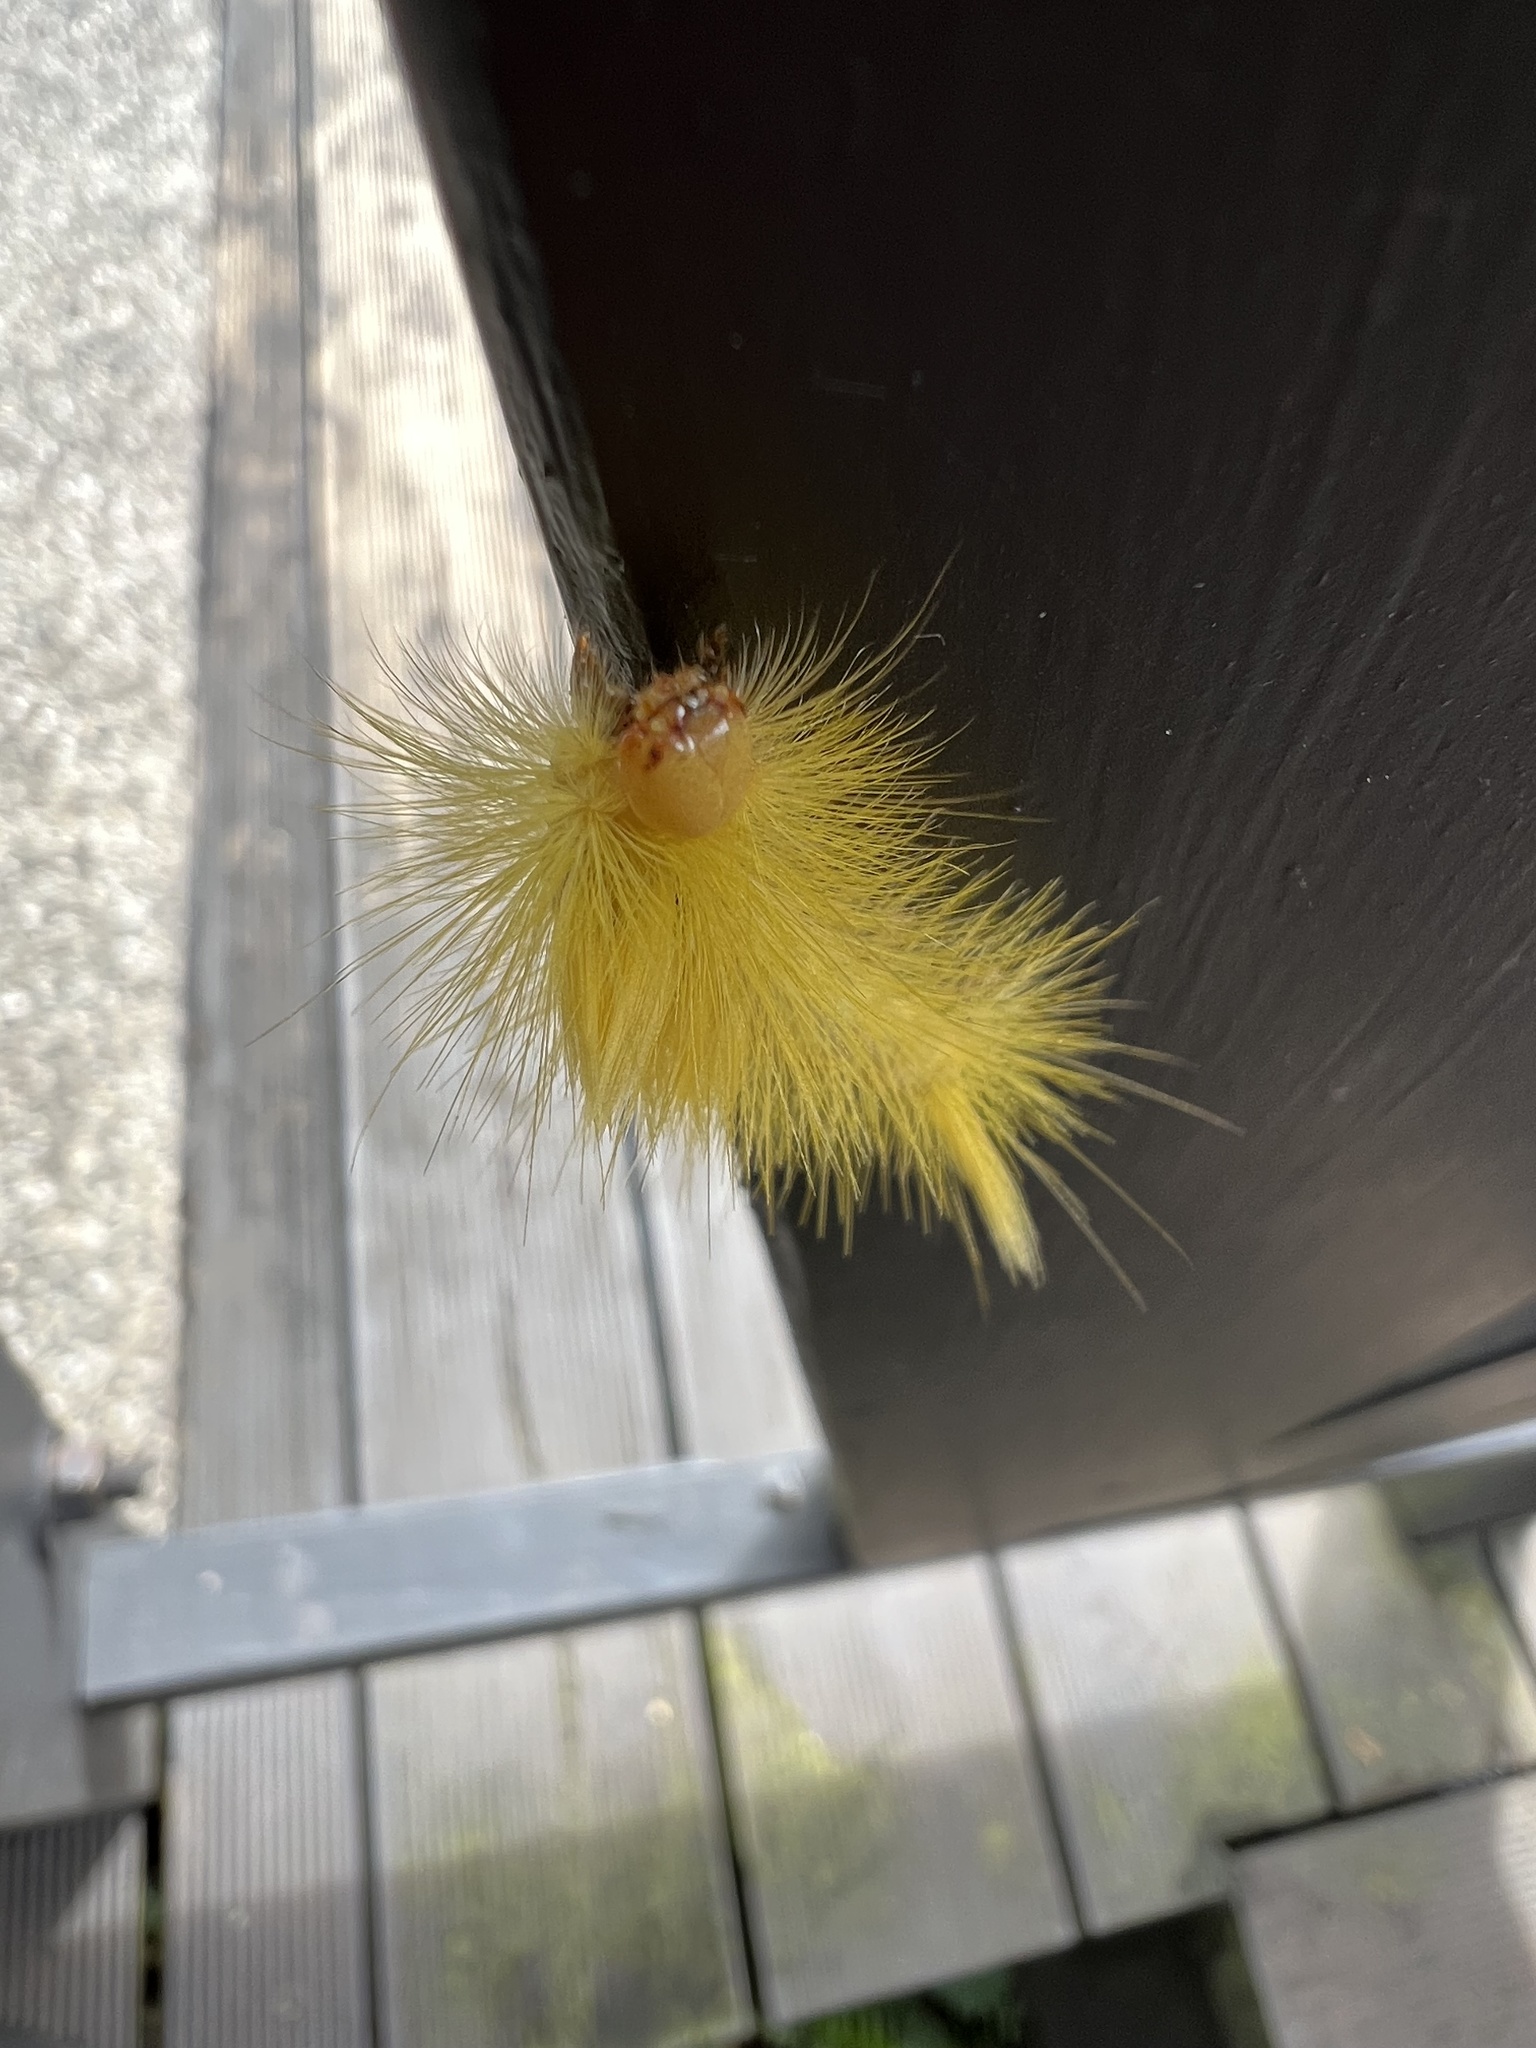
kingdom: Animalia
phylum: Arthropoda
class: Insecta
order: Lepidoptera
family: Erebidae
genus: Calliteara
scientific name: Calliteara grotei
